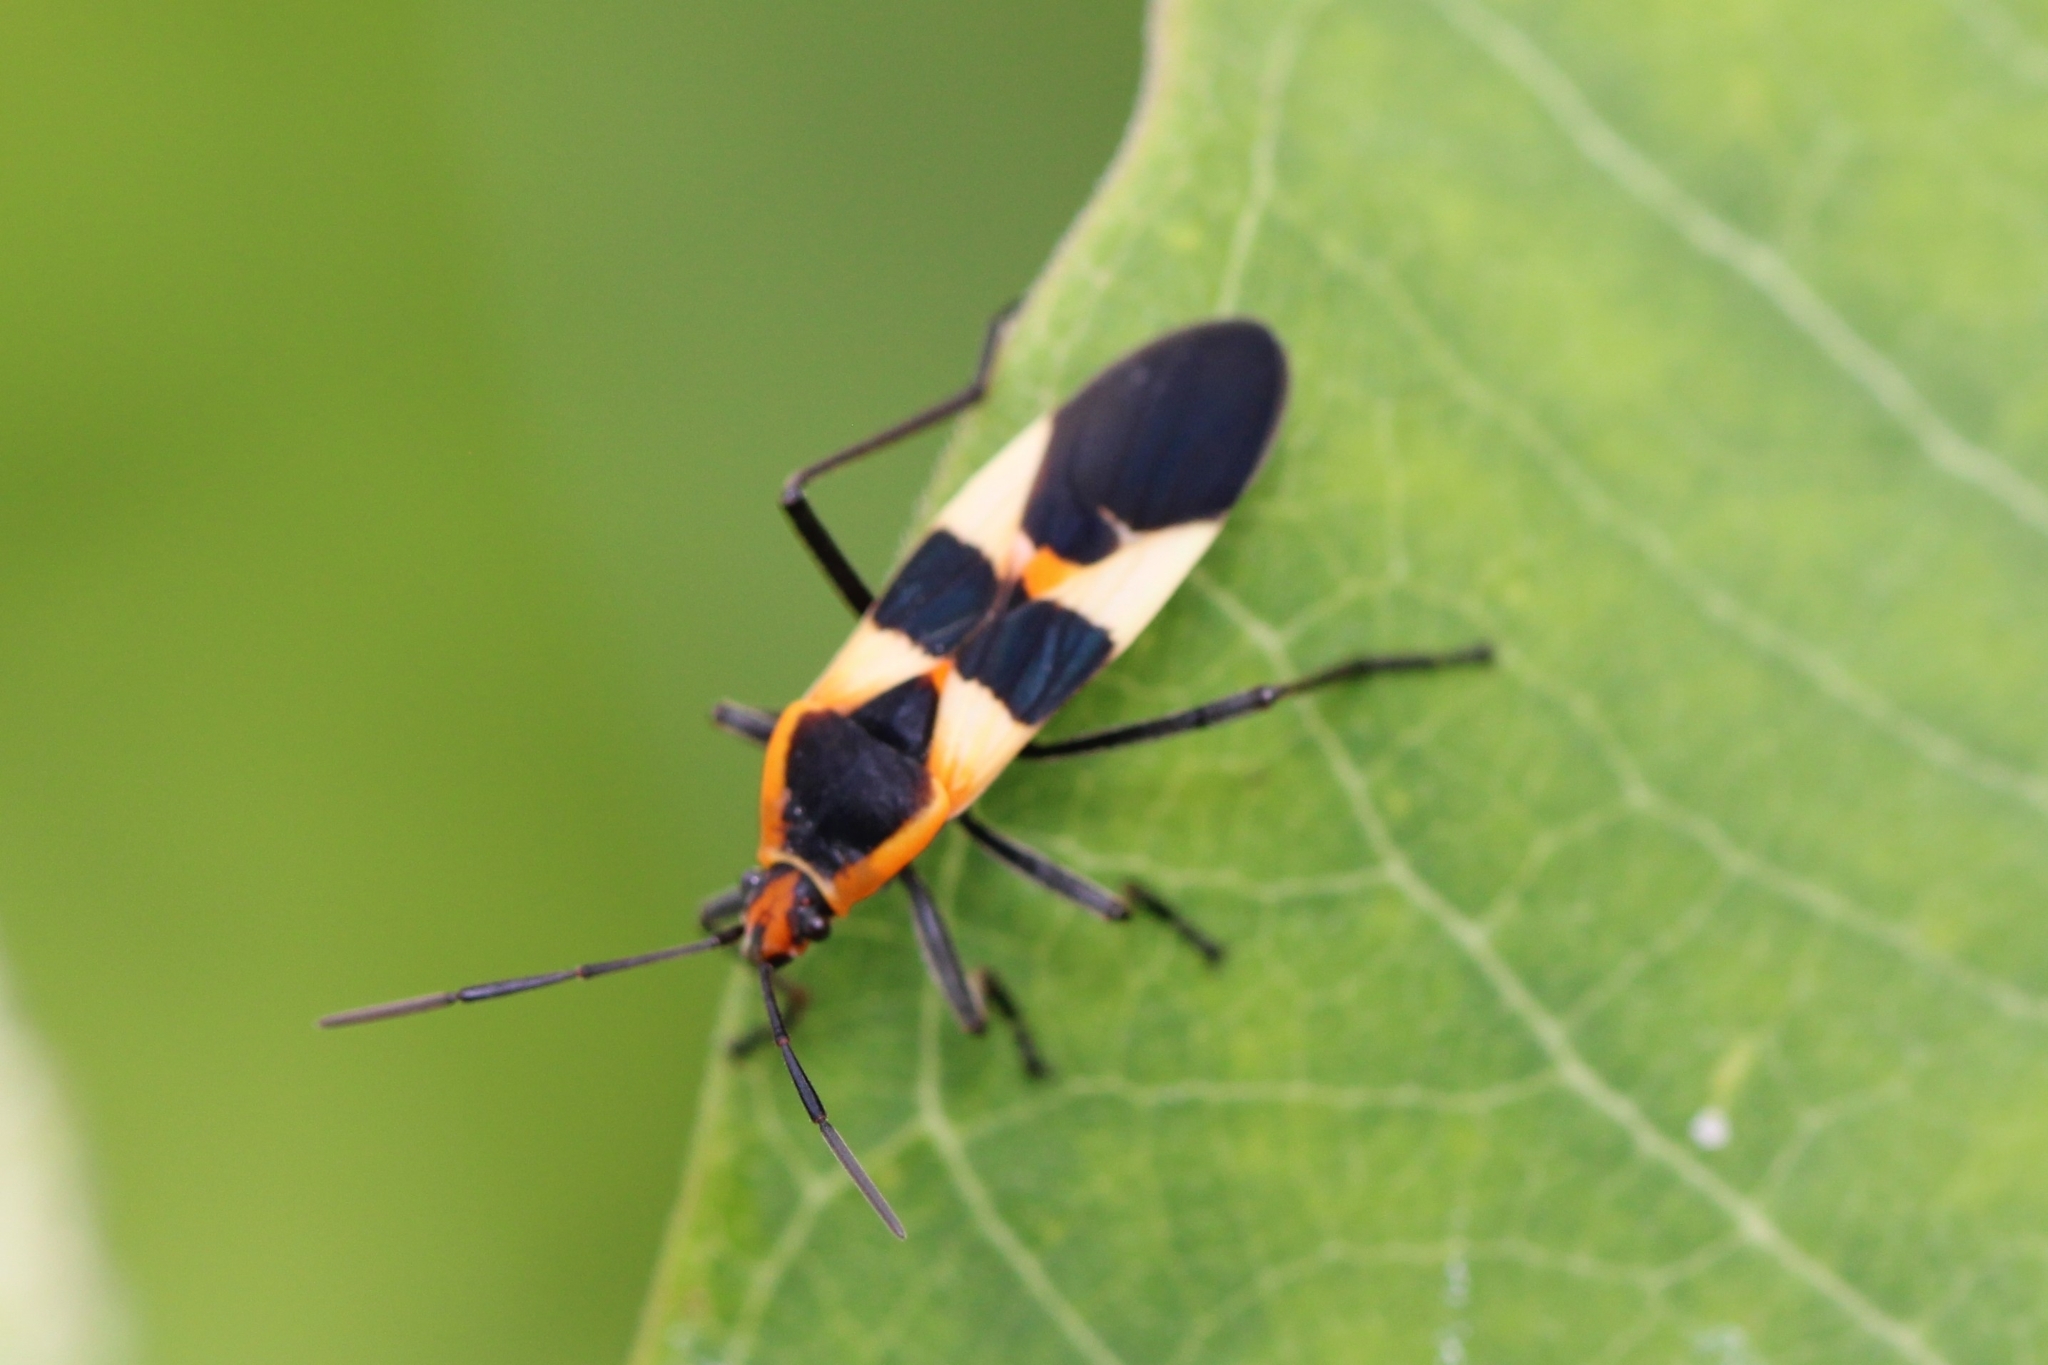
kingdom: Animalia
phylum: Arthropoda
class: Insecta
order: Hemiptera
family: Lygaeidae
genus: Oncopeltus
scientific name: Oncopeltus fasciatus
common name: Large milkweed bug
